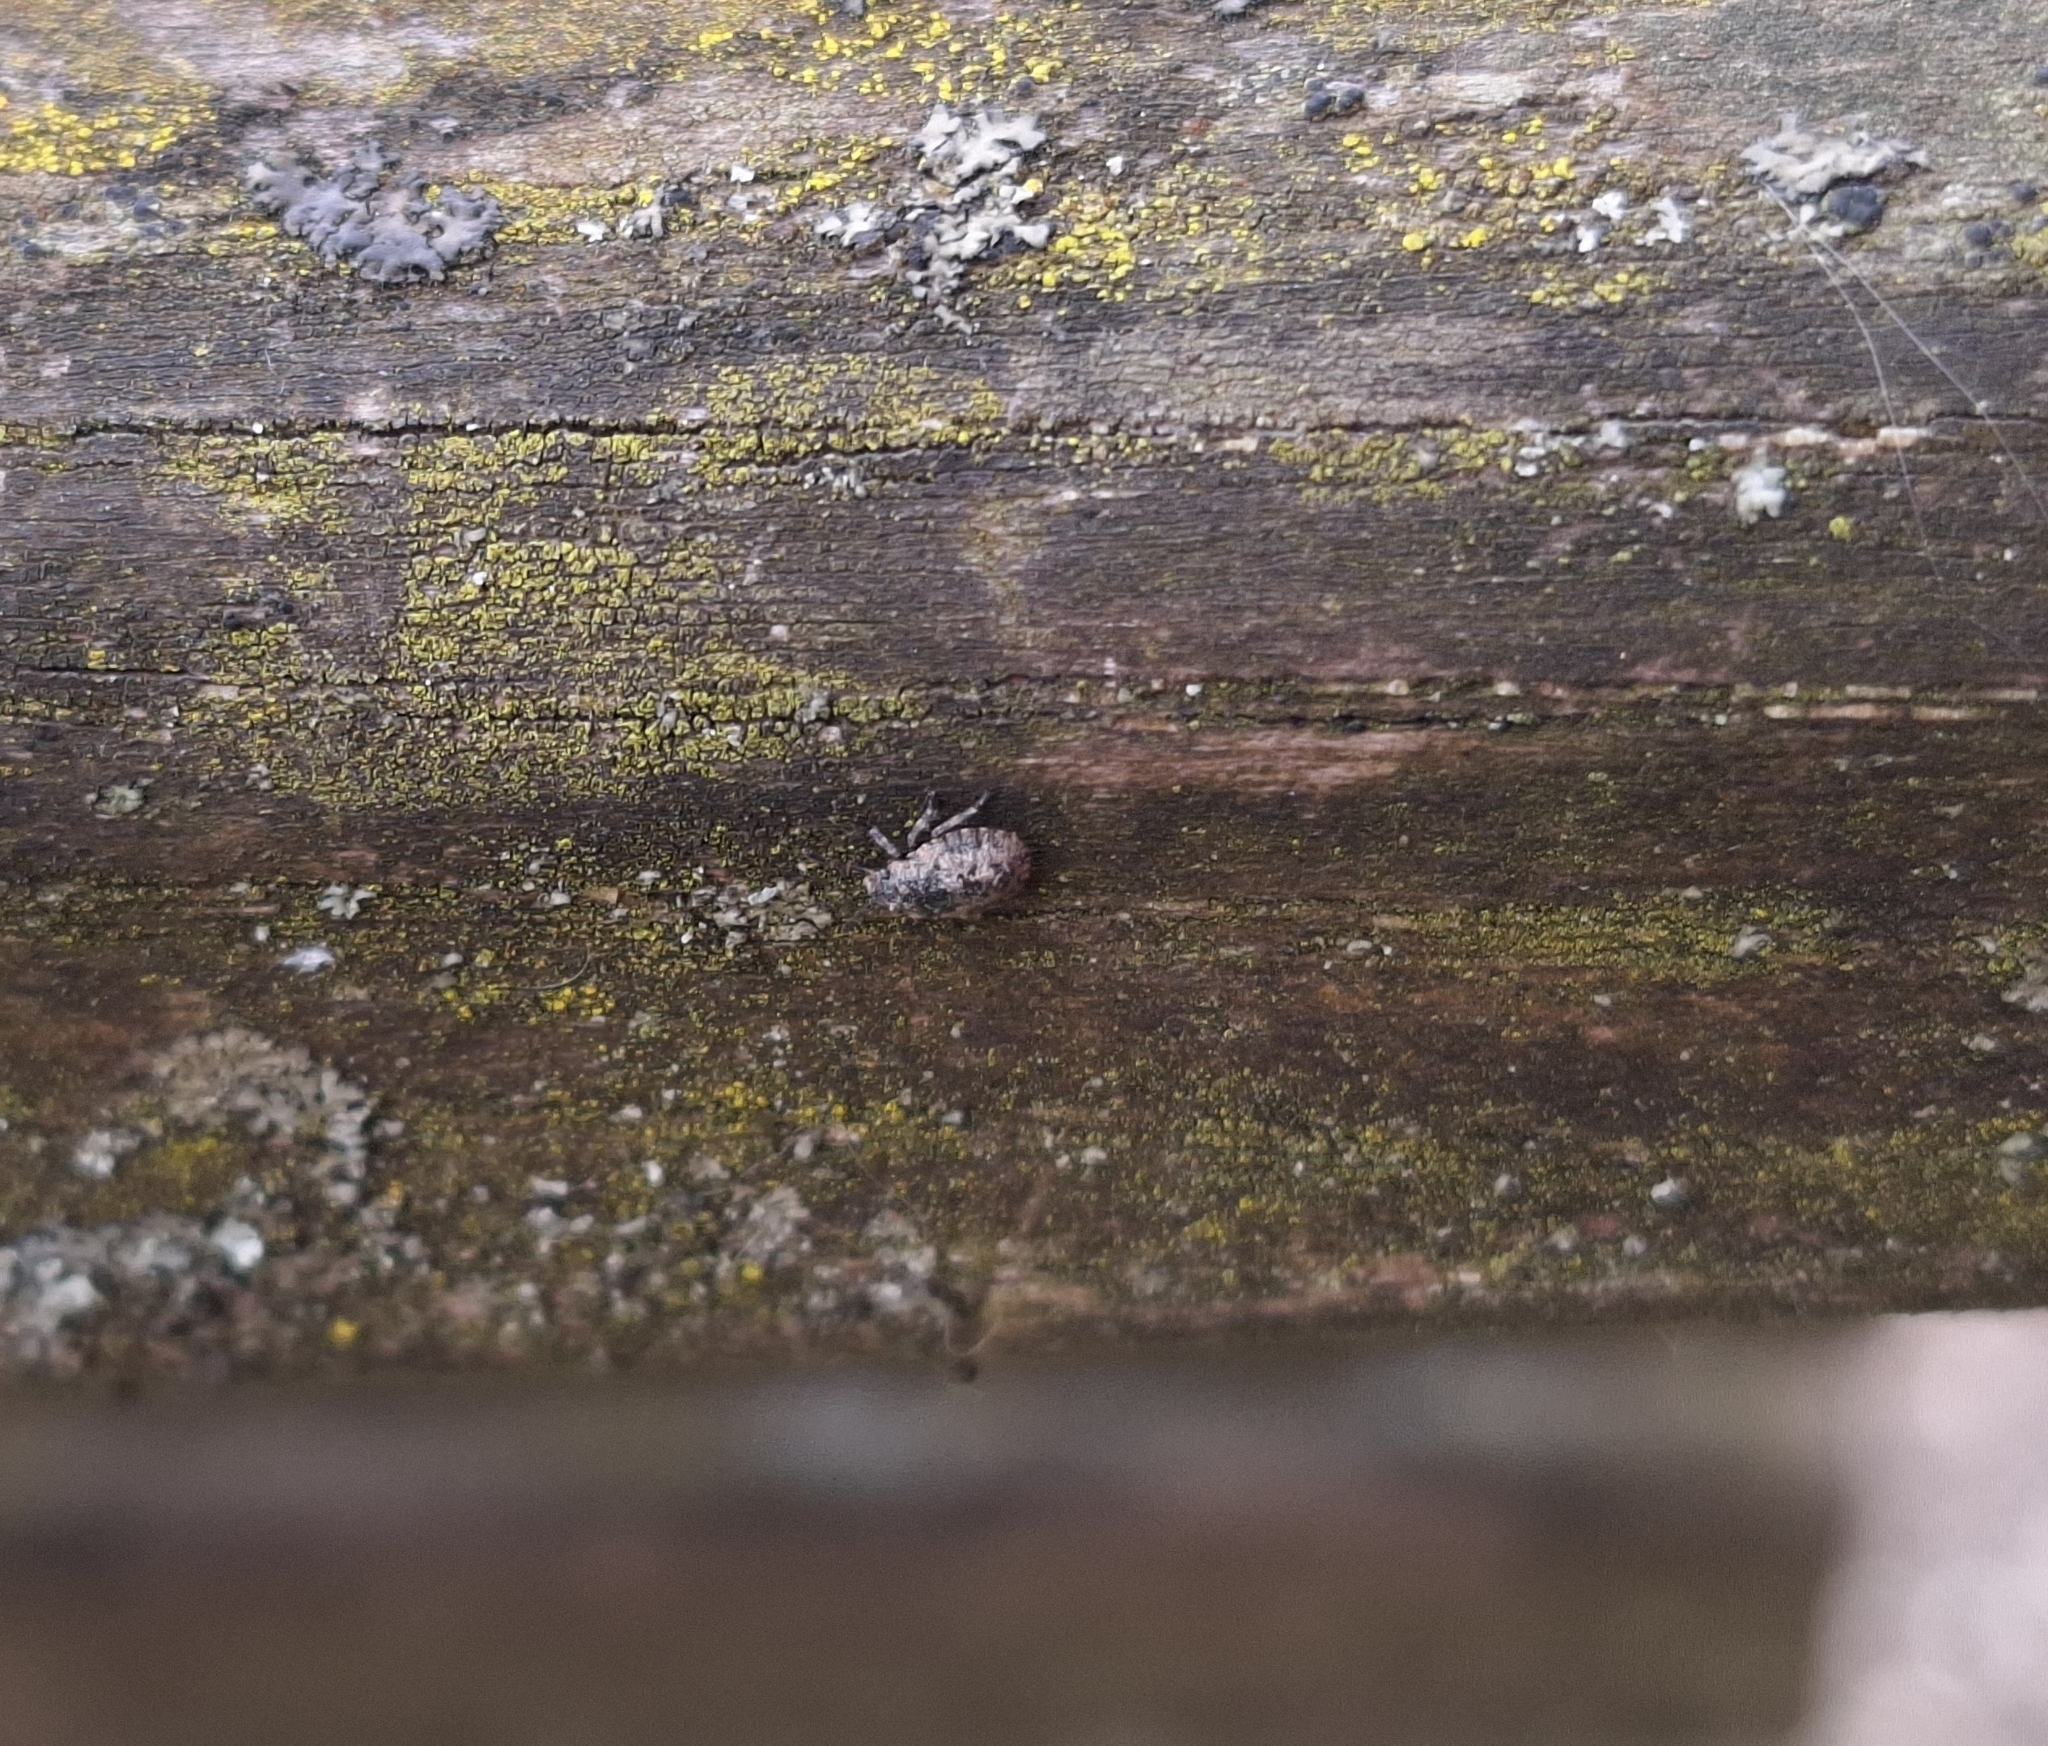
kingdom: Animalia
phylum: Arthropoda
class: Insecta
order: Hemiptera
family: Pentatomidae
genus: Pentatoma
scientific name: Pentatoma rufipes
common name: Forest bug
